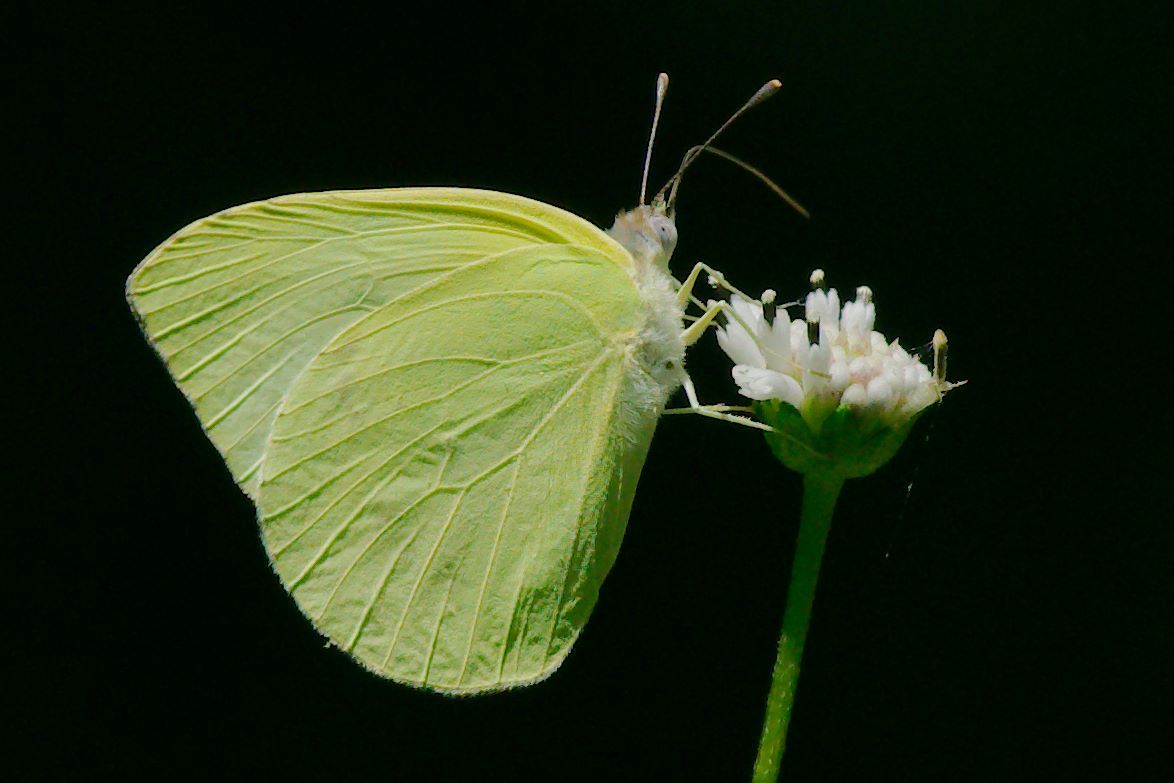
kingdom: Animalia
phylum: Arthropoda
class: Insecta
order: Lepidoptera
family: Pieridae
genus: Kricogonia
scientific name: Kricogonia lyside
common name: Guayacan sulphur,
